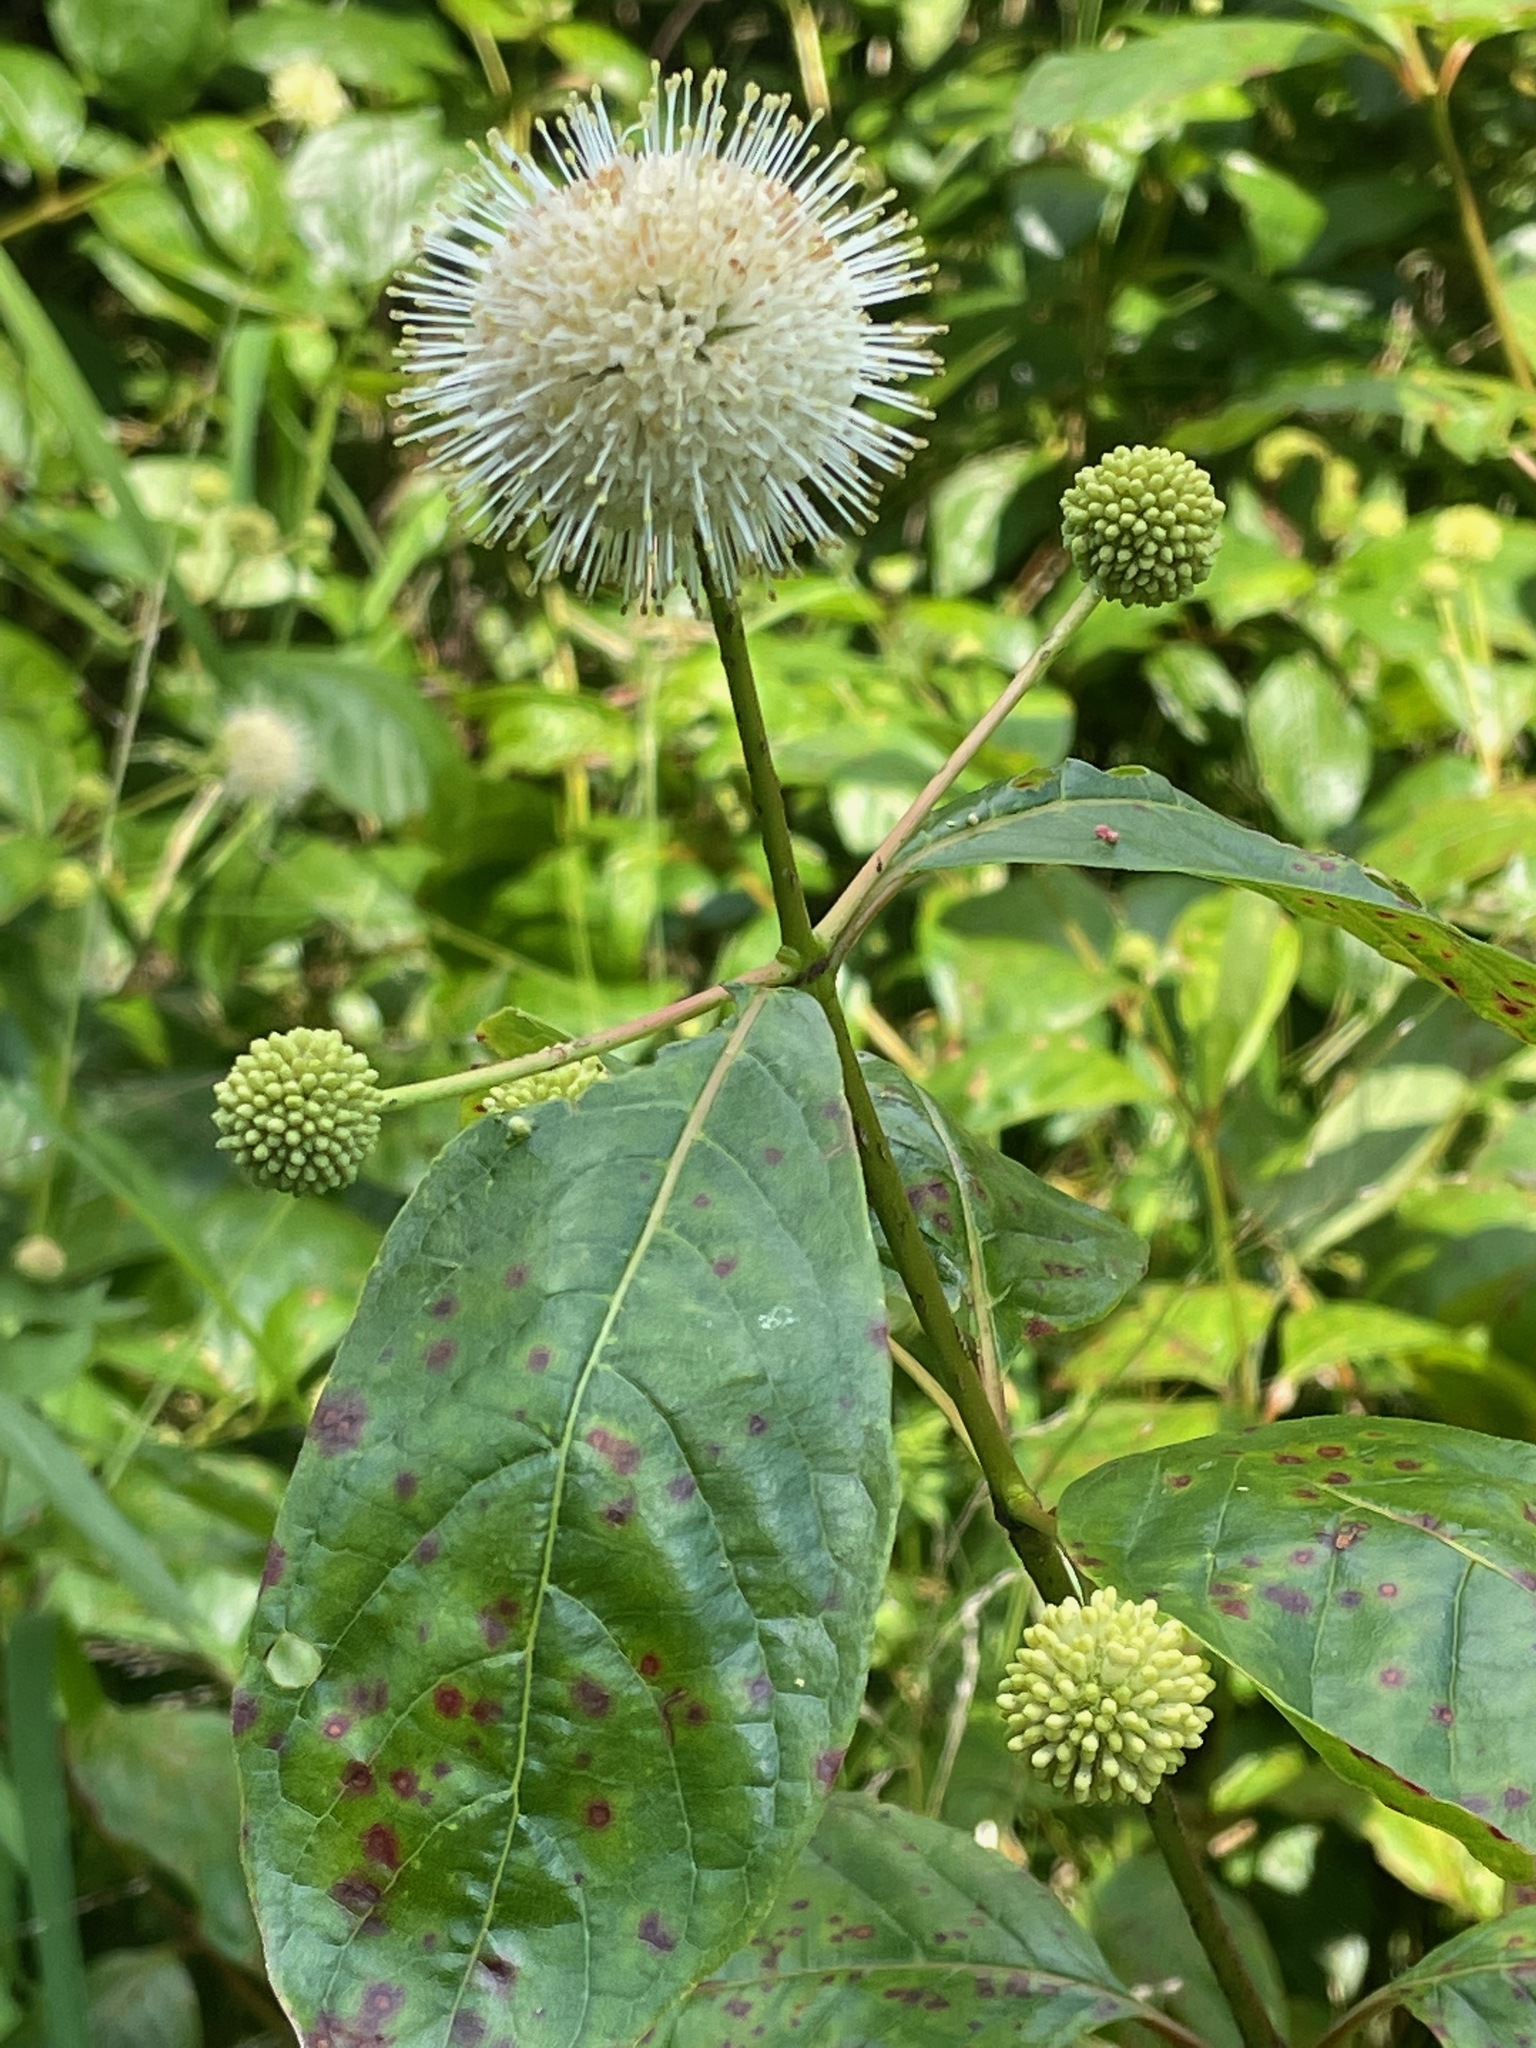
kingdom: Plantae
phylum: Tracheophyta
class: Magnoliopsida
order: Gentianales
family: Rubiaceae
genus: Cephalanthus
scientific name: Cephalanthus occidentalis
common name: Button-willow
